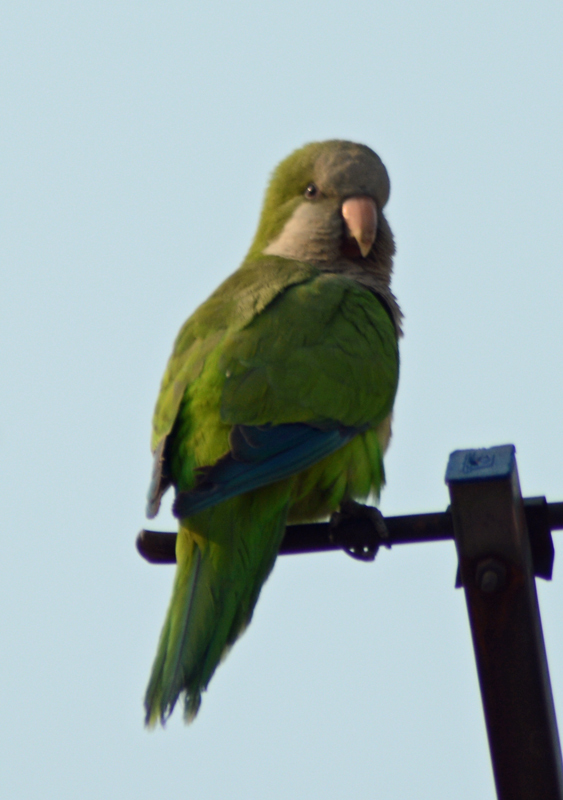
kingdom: Animalia
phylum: Chordata
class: Aves
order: Psittaciformes
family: Psittacidae
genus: Myiopsitta
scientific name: Myiopsitta monachus
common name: Monk parakeet
